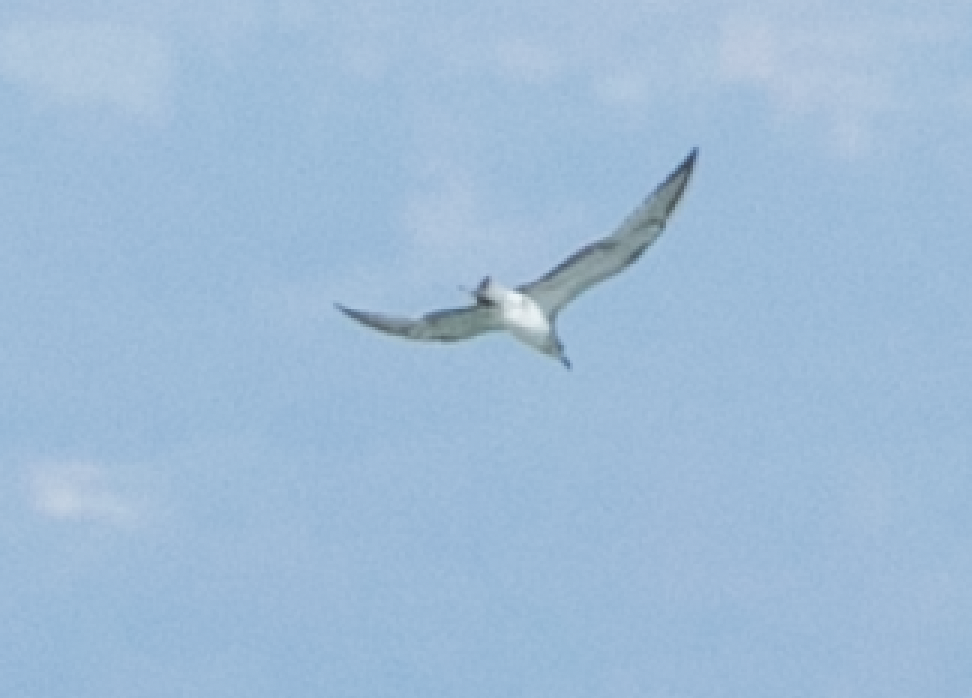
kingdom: Animalia
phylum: Chordata
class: Aves
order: Charadriiformes
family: Laridae
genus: Ichthyaetus
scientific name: Ichthyaetus melanocephalus
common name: Mediterranean gull
